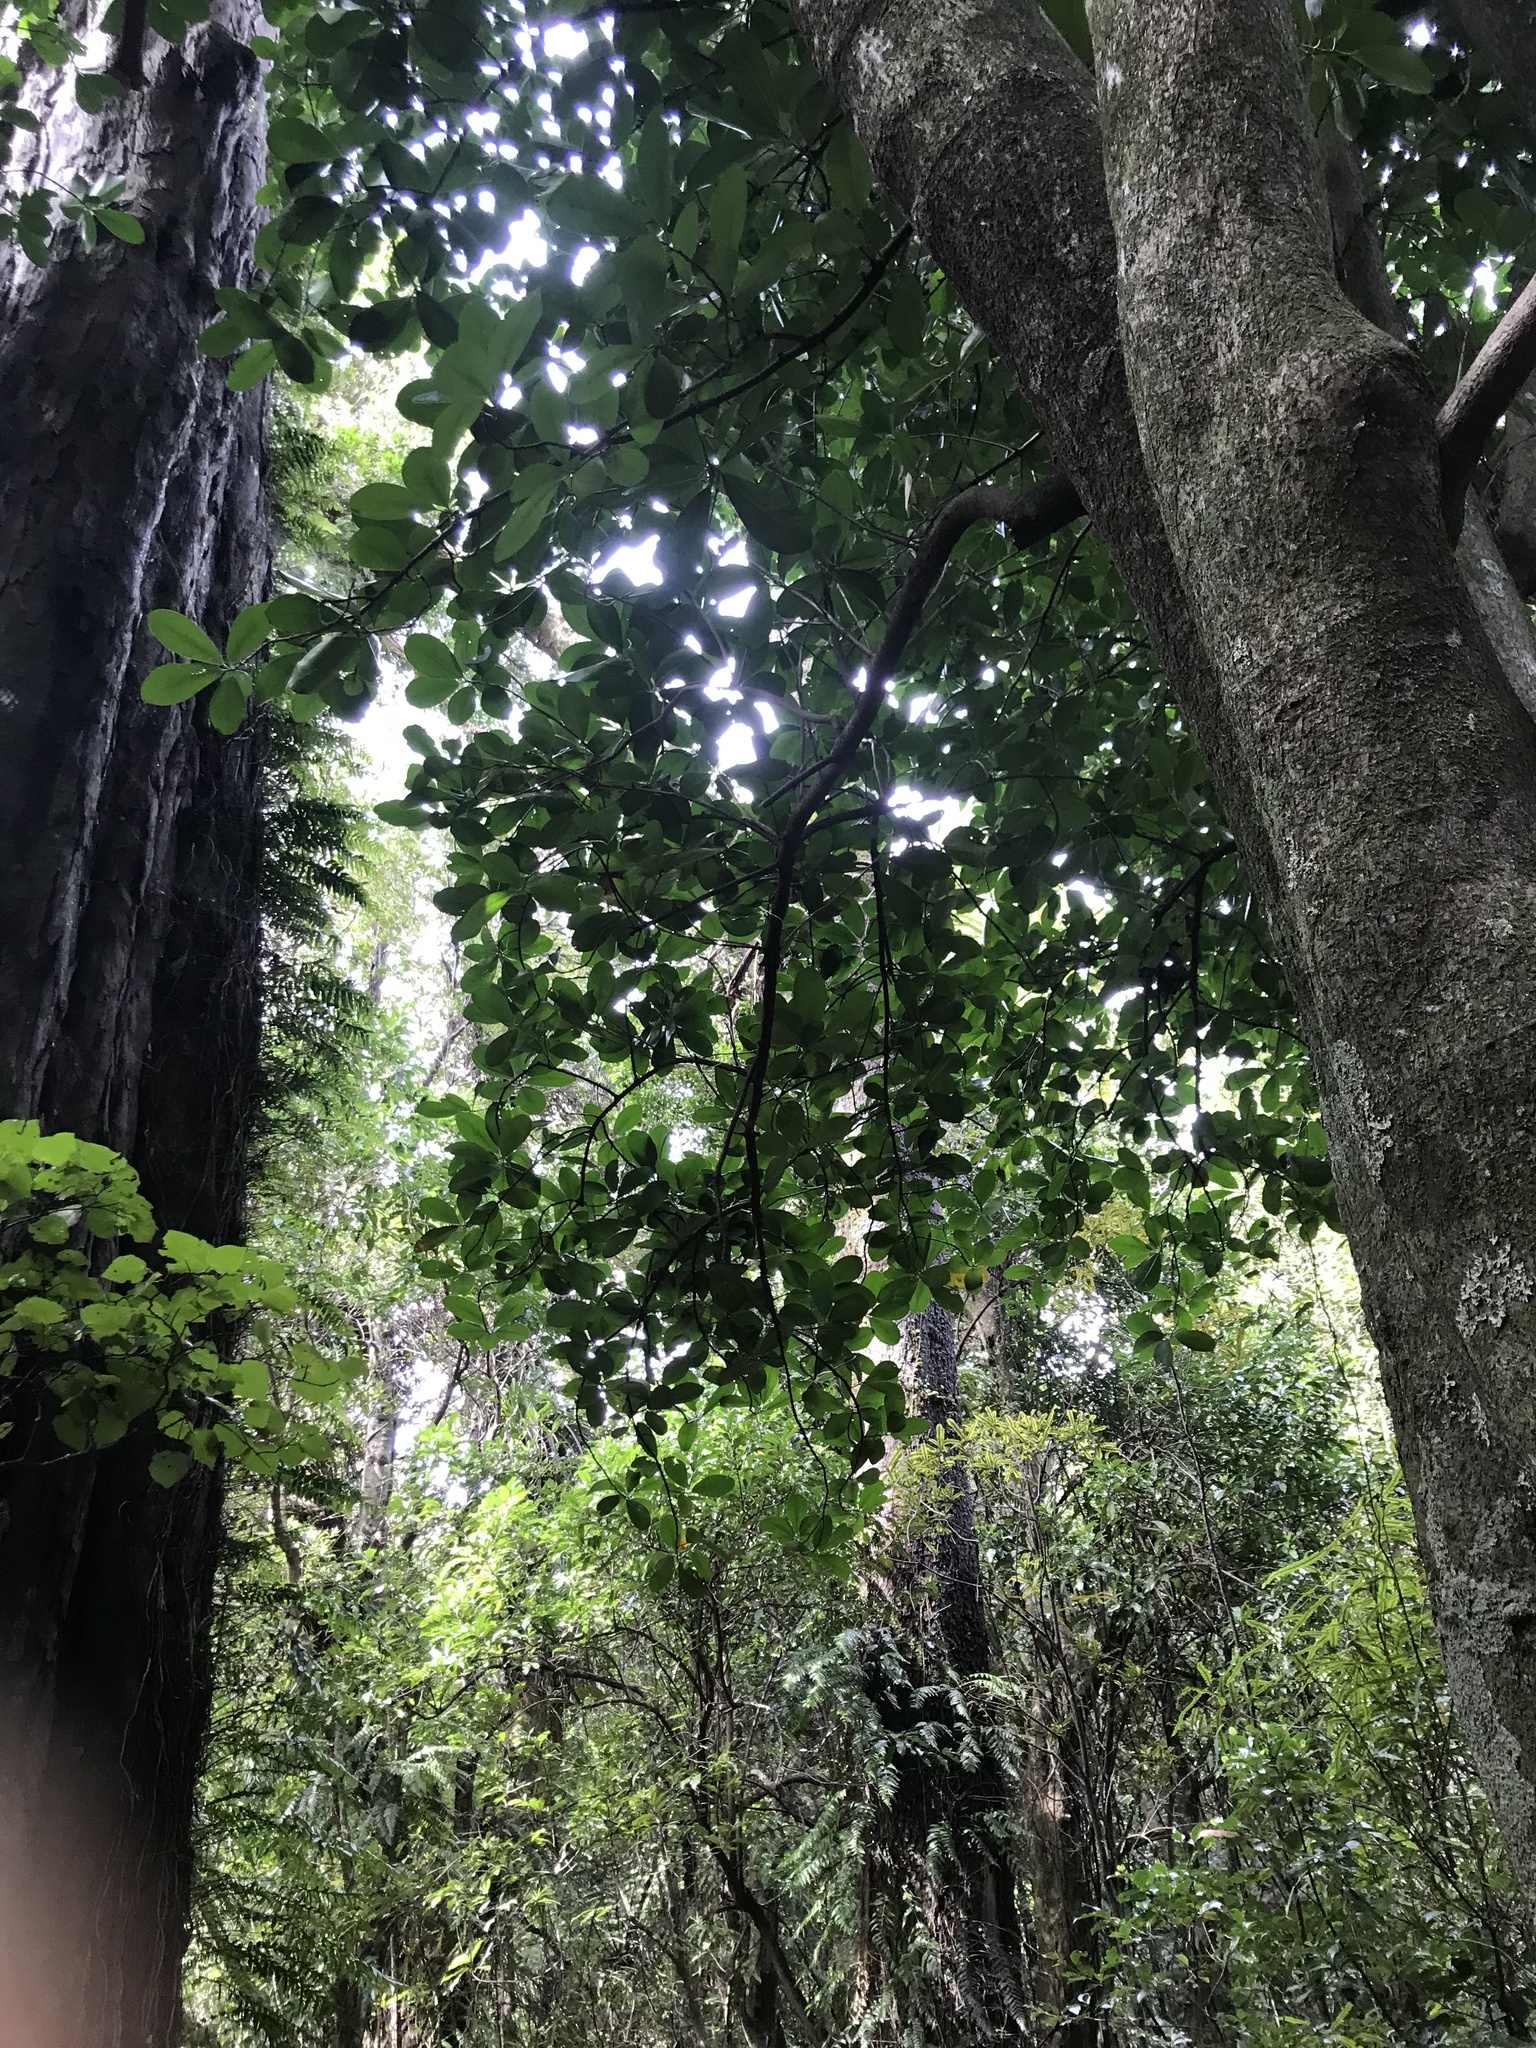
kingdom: Plantae
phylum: Tracheophyta
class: Magnoliopsida
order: Cucurbitales
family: Corynocarpaceae
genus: Corynocarpus
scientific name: Corynocarpus laevigatus
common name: New zealand laurel
